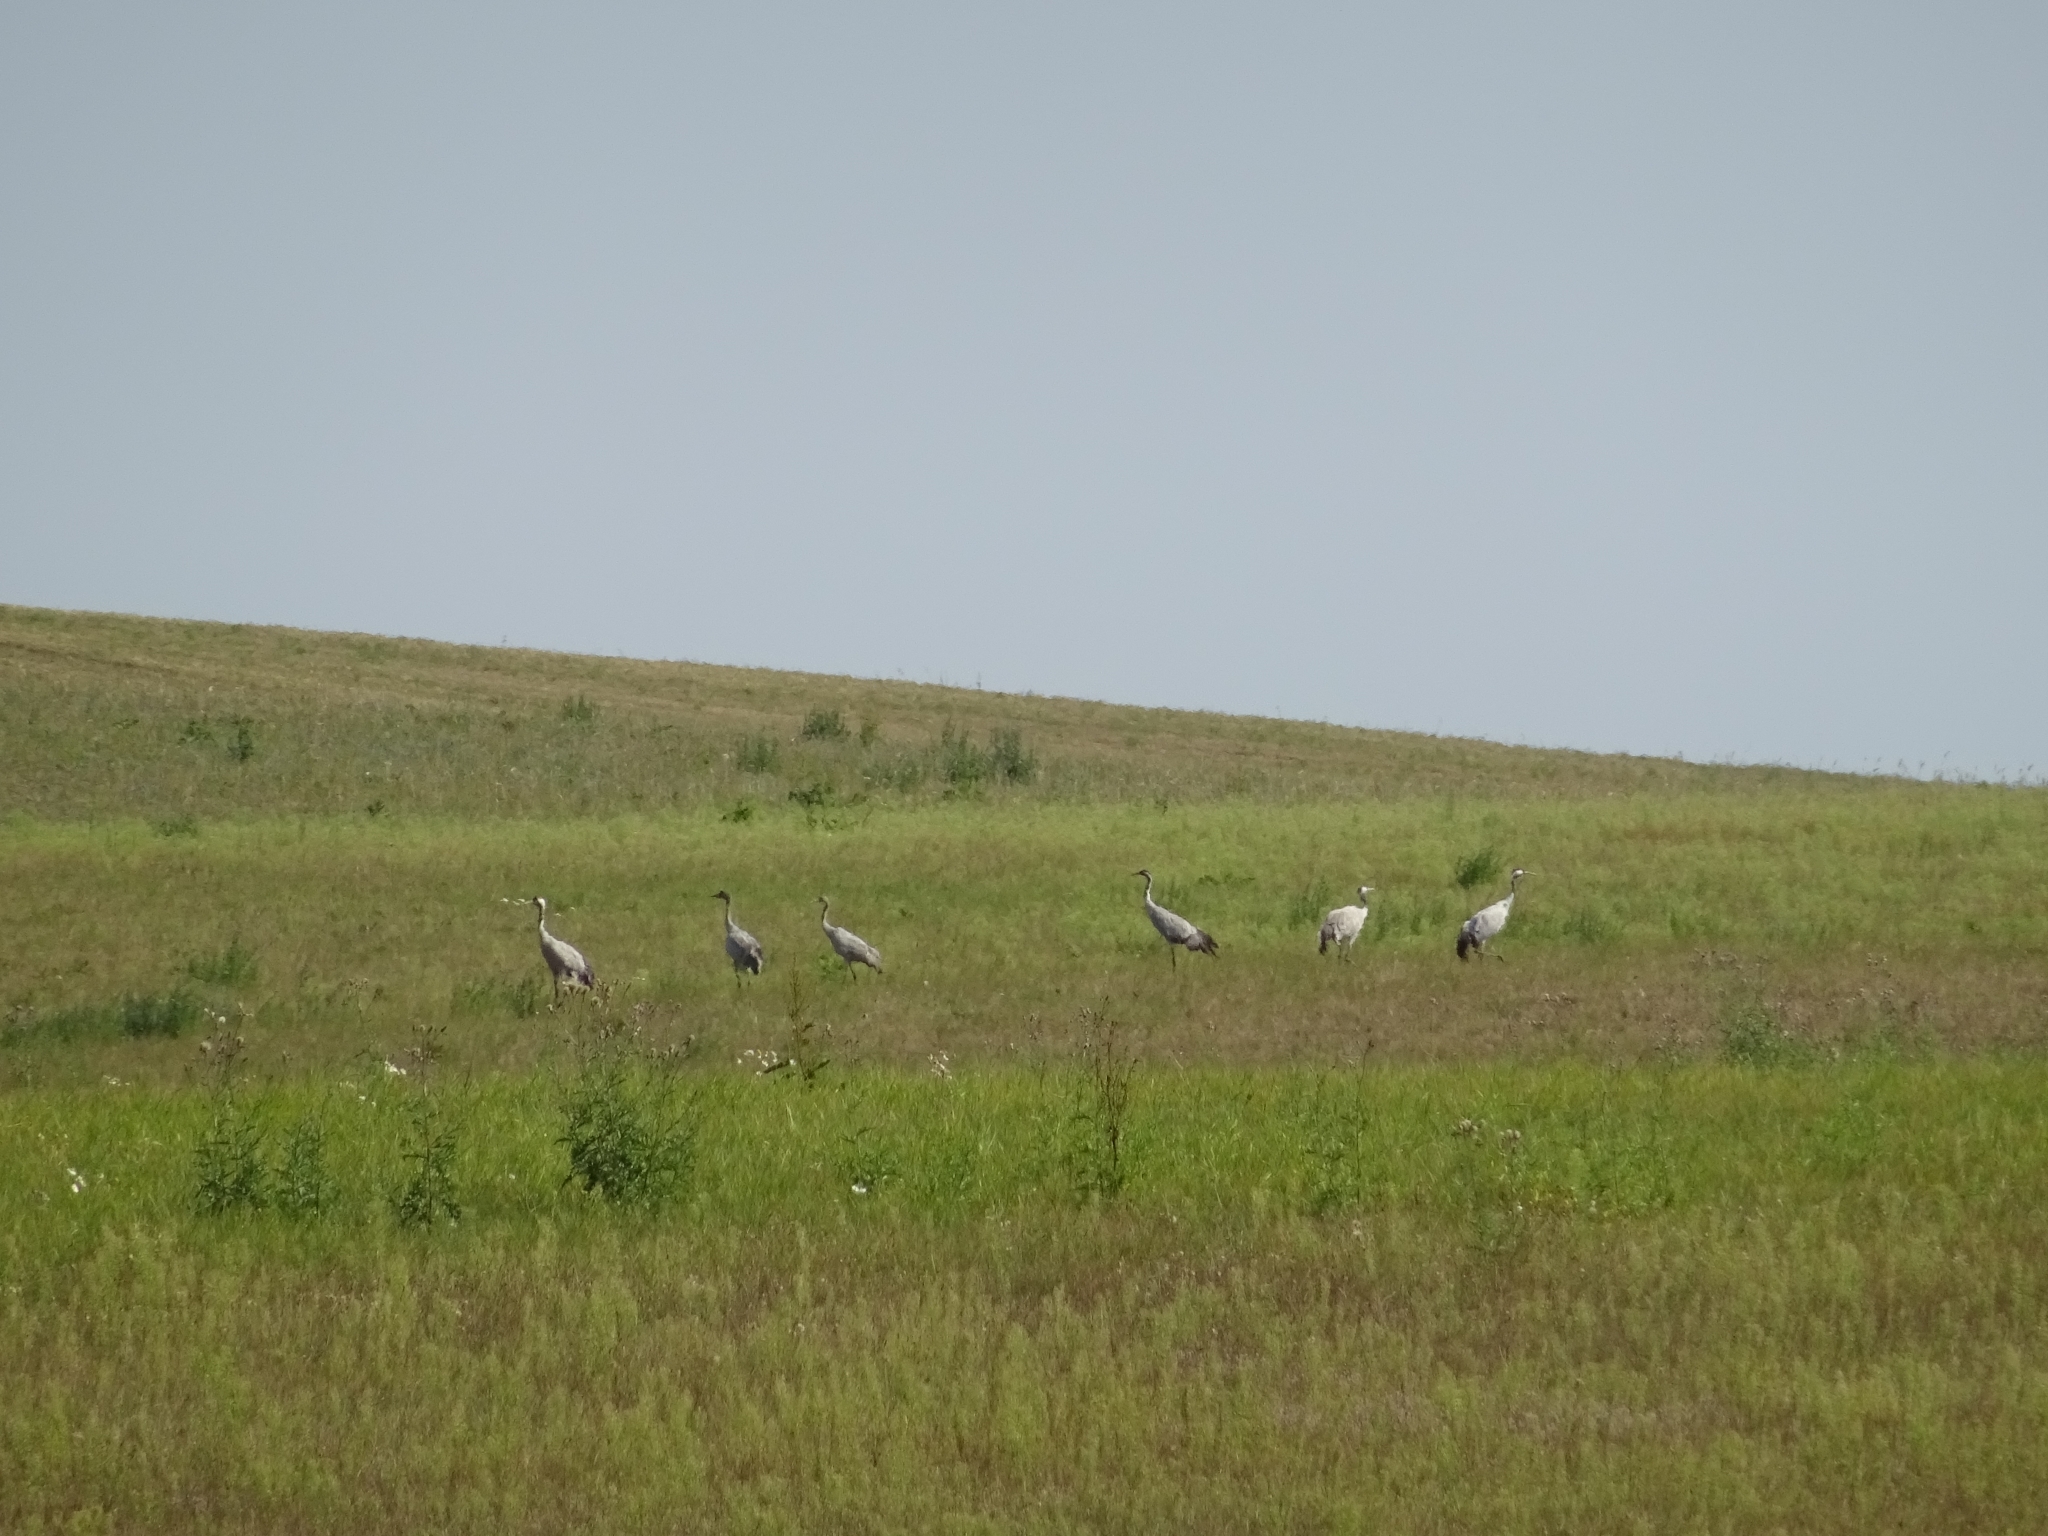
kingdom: Animalia
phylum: Chordata
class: Aves
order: Gruiformes
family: Gruidae
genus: Grus
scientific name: Grus grus
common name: Common crane
